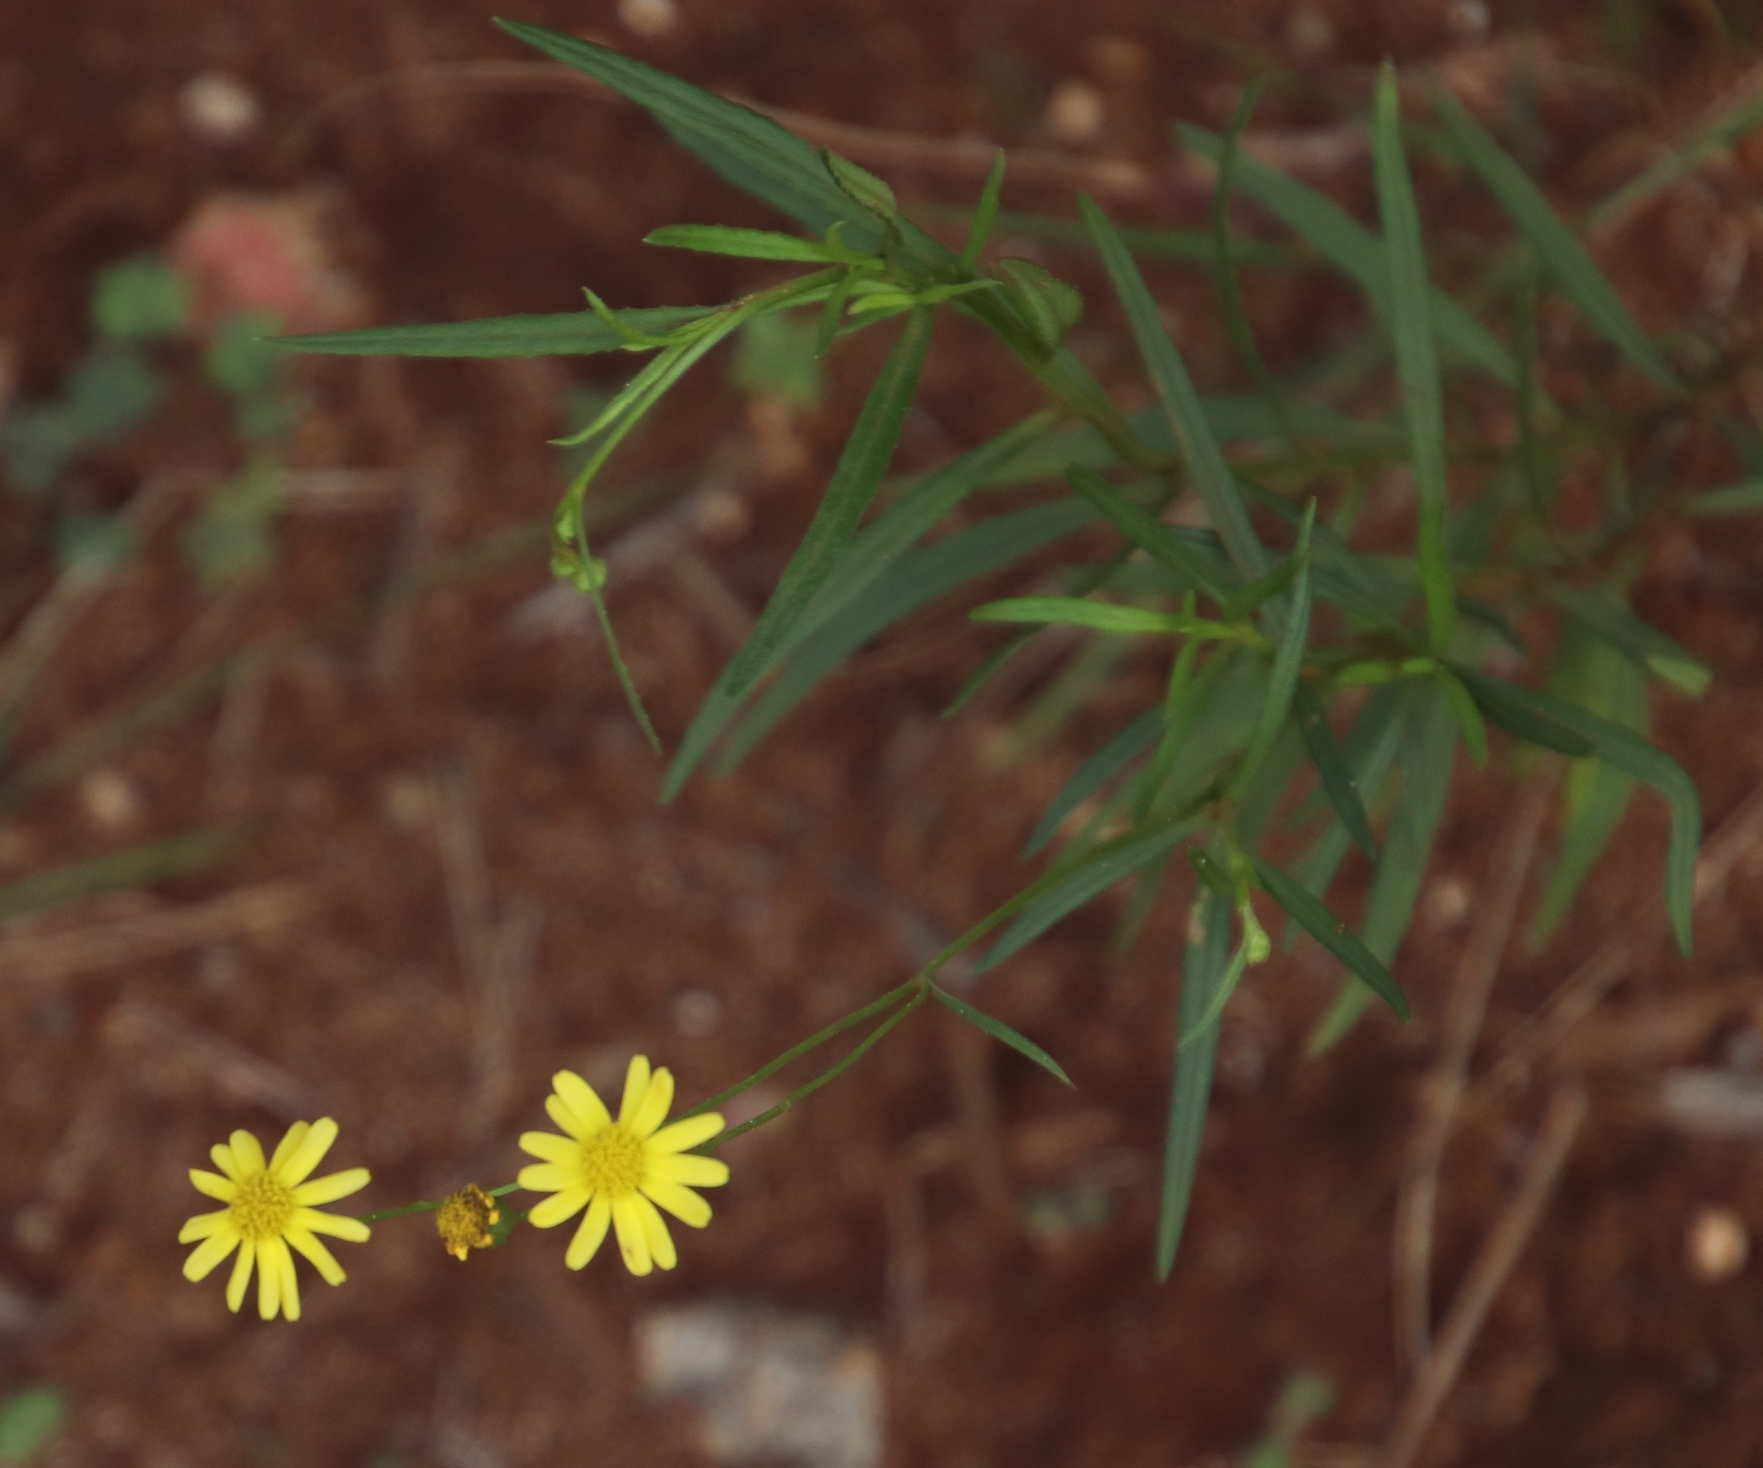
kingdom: Plantae
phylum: Tracheophyta
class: Magnoliopsida
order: Asterales
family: Asteraceae
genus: Senecio
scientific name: Senecio bupleuroides
